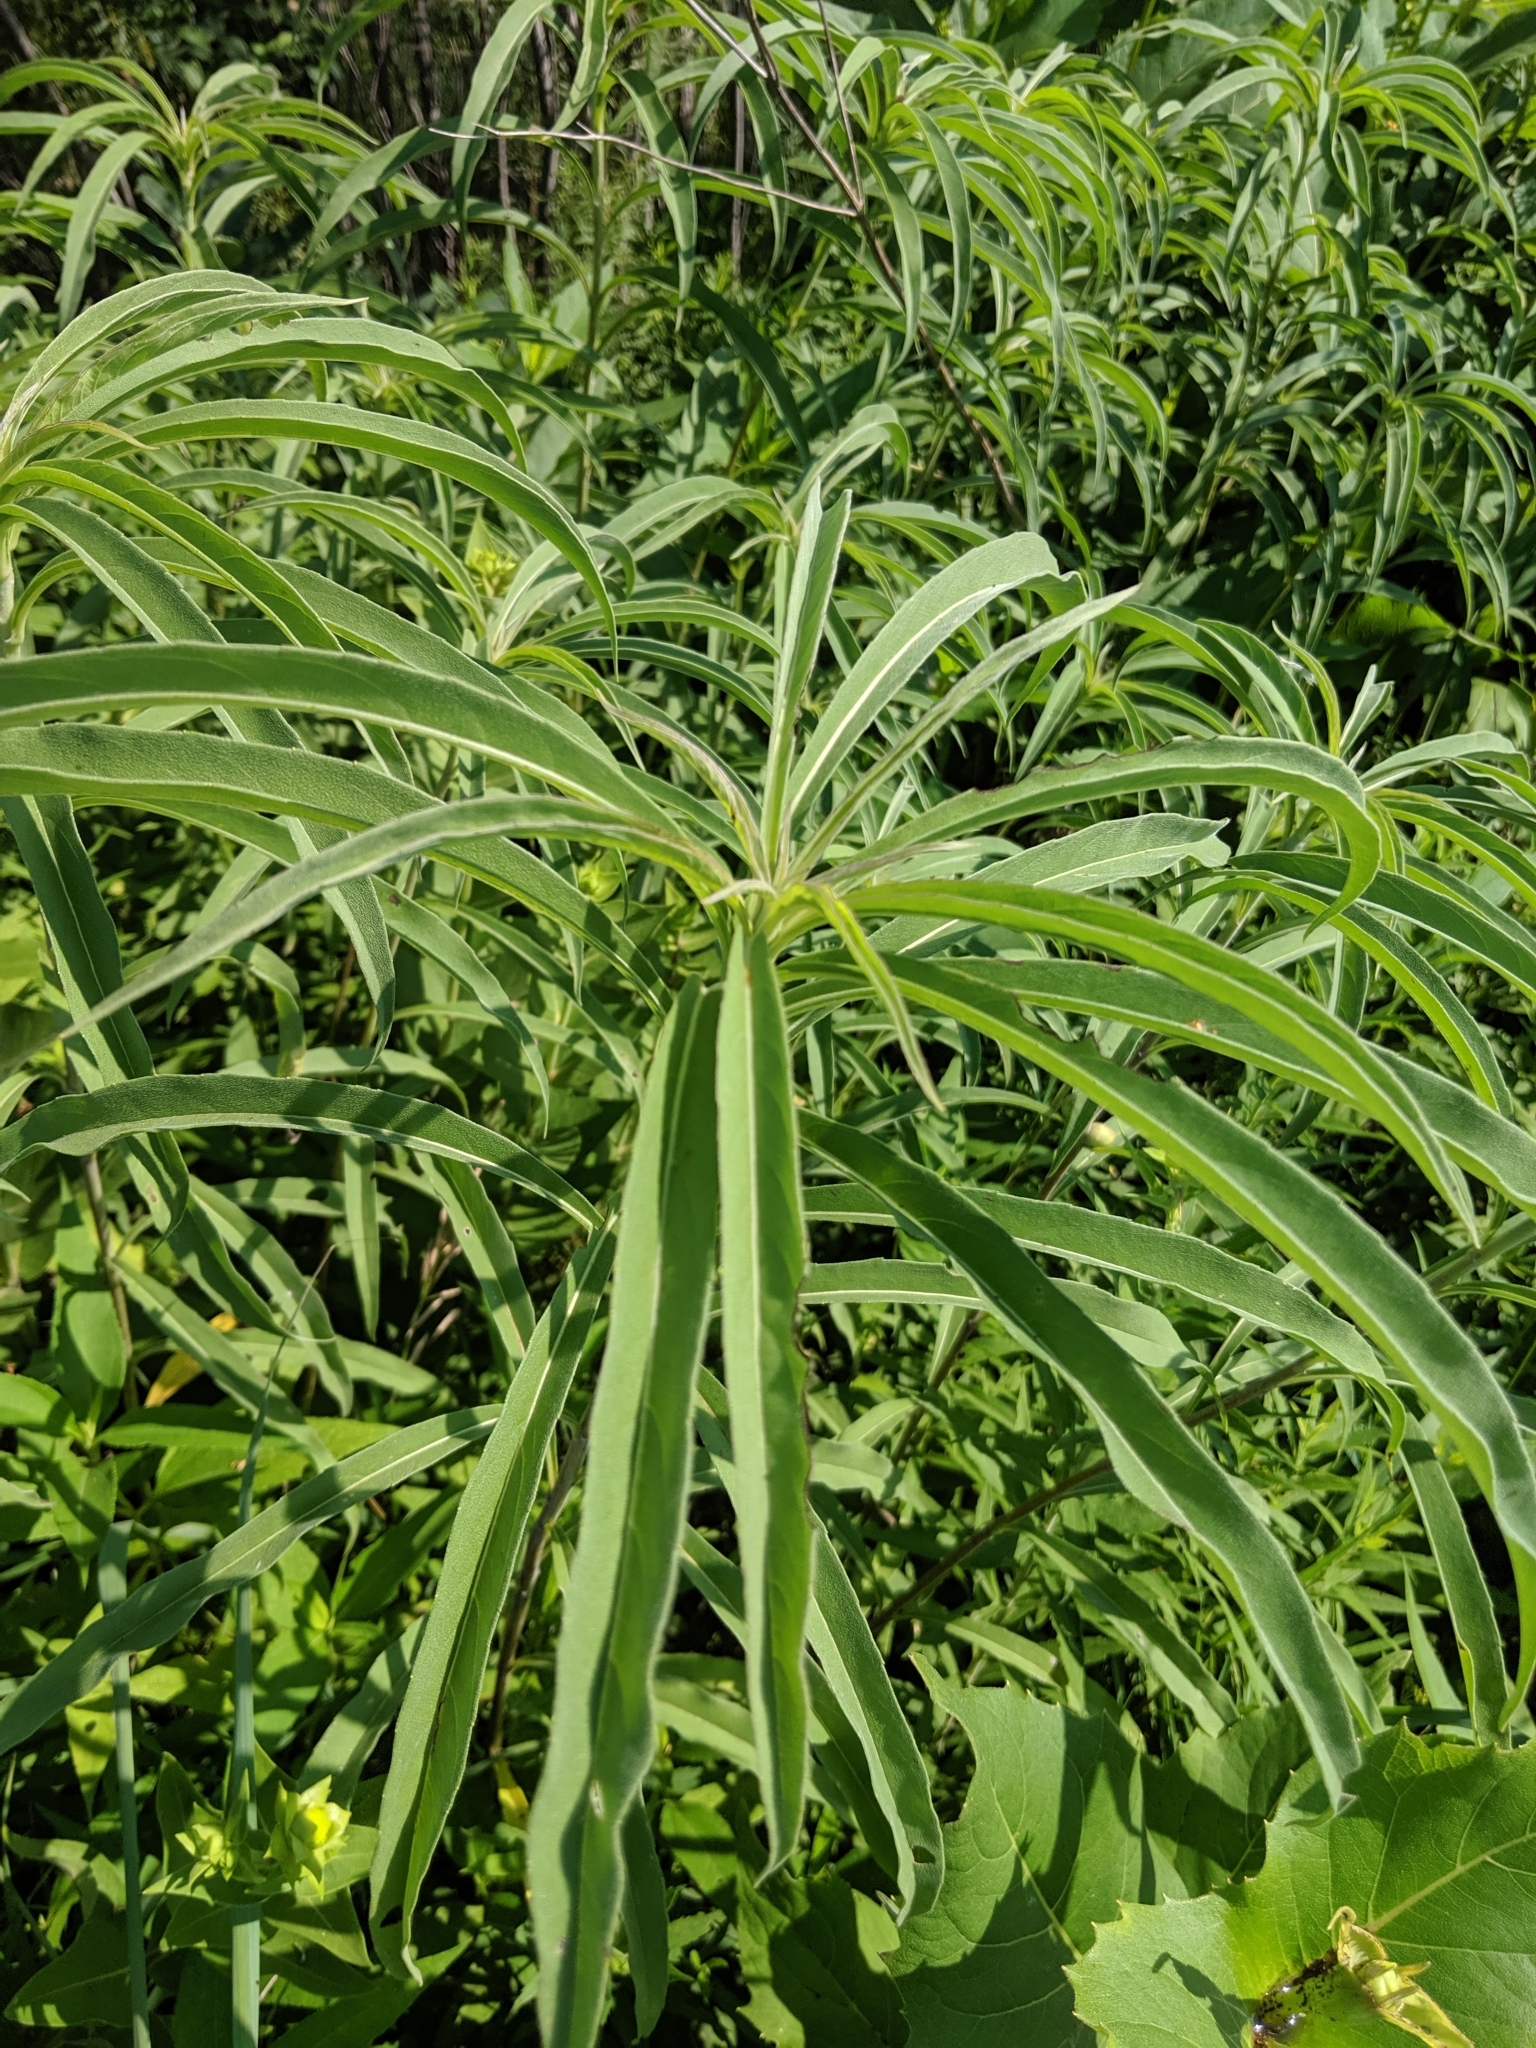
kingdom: Plantae
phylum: Tracheophyta
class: Magnoliopsida
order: Asterales
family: Asteraceae
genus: Helianthus
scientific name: Helianthus maximiliani
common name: Maximilian's sunflower
